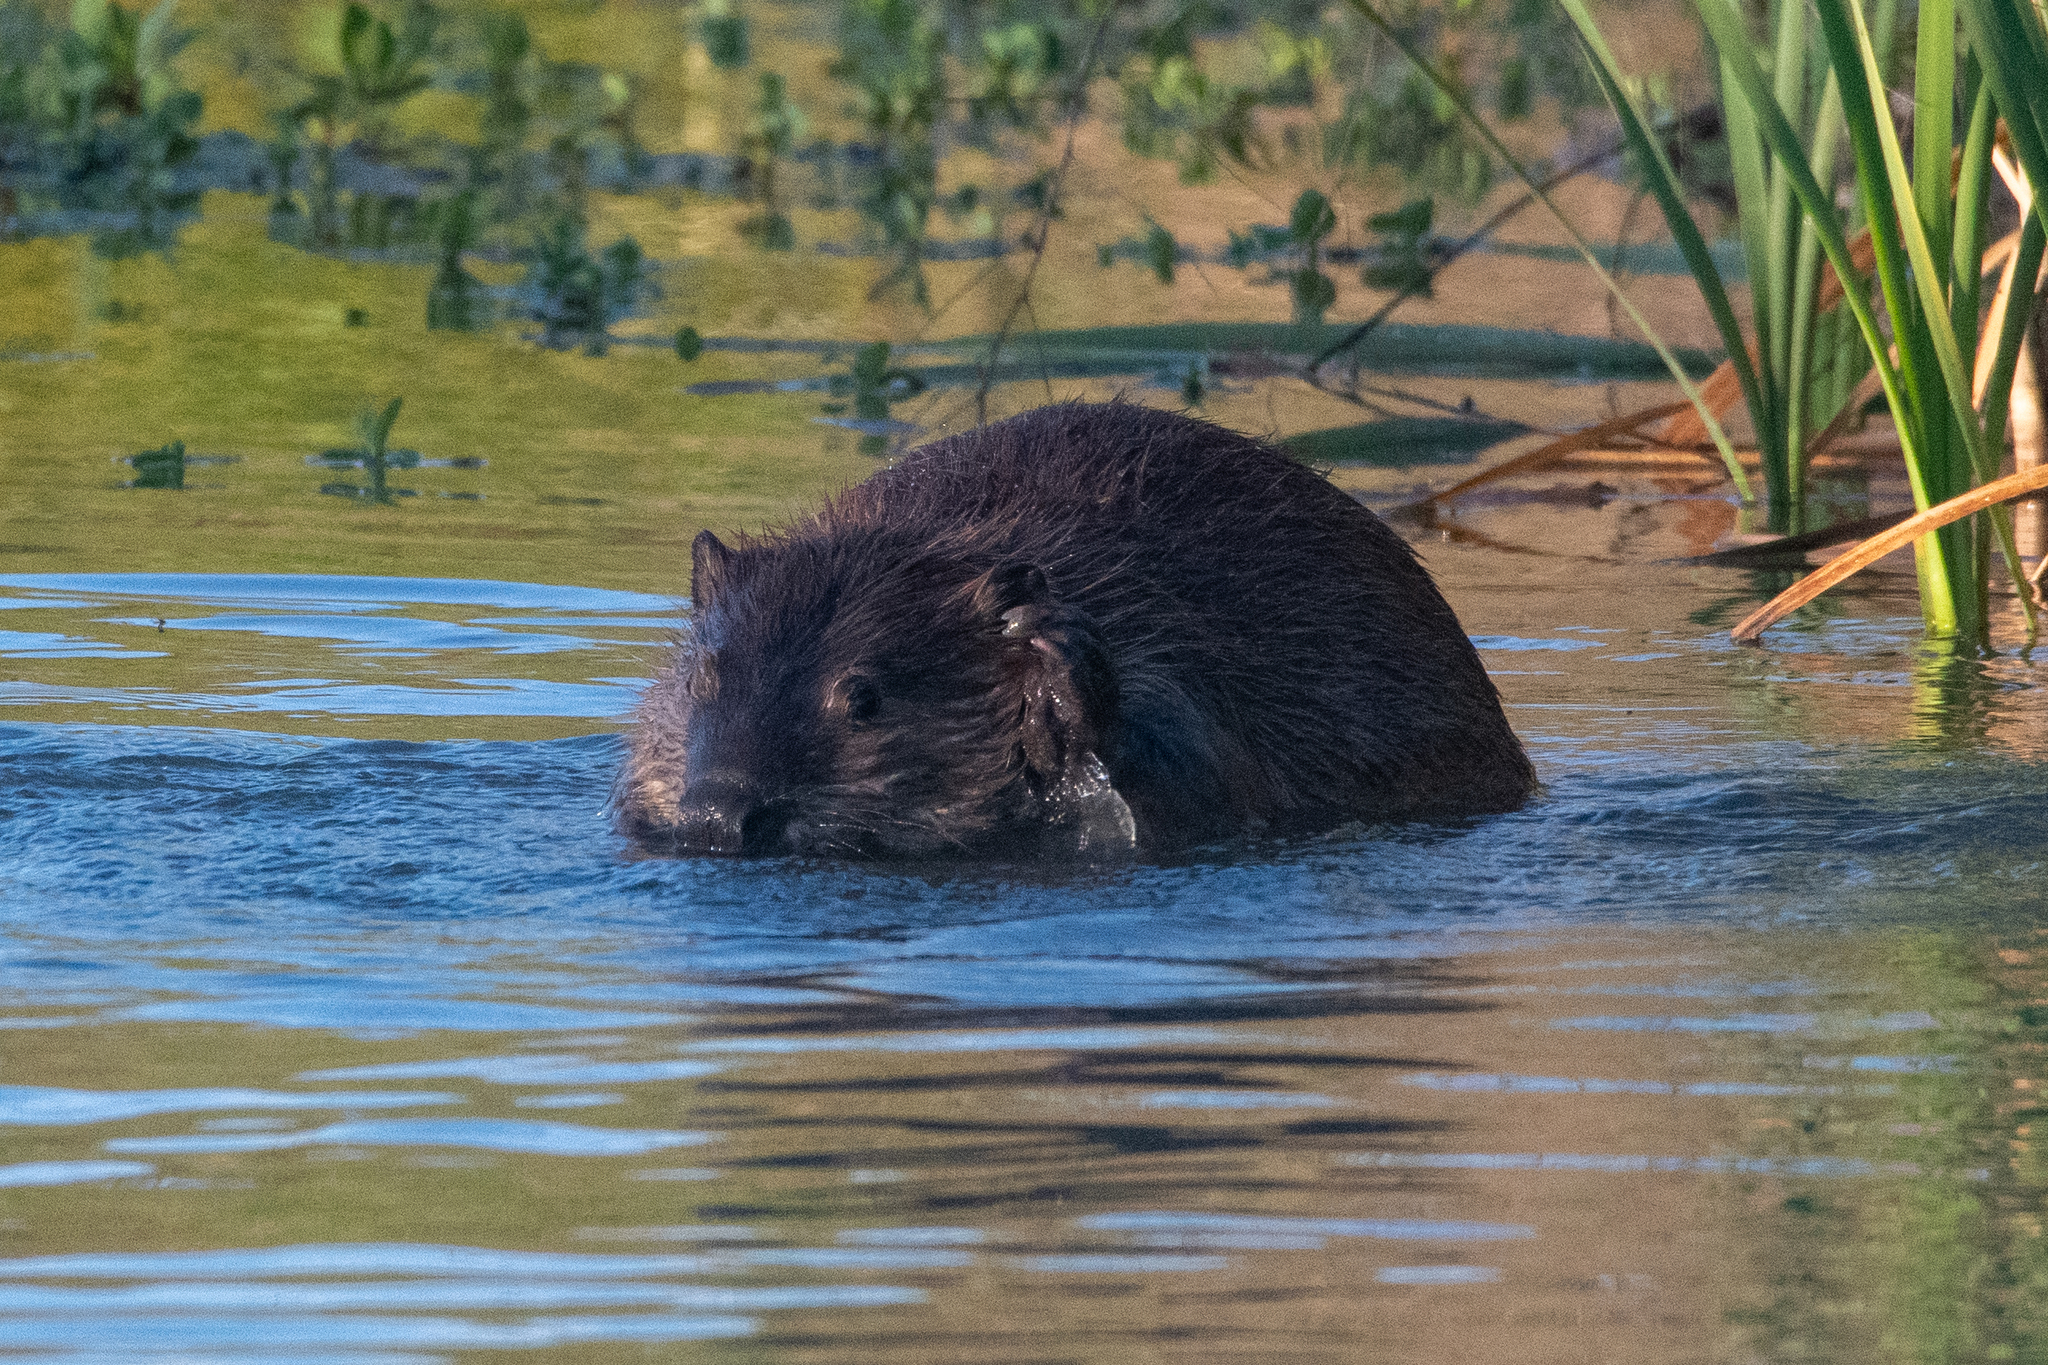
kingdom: Animalia
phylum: Chordata
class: Mammalia
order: Rodentia
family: Castoridae
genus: Castor
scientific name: Castor canadensis
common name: American beaver
